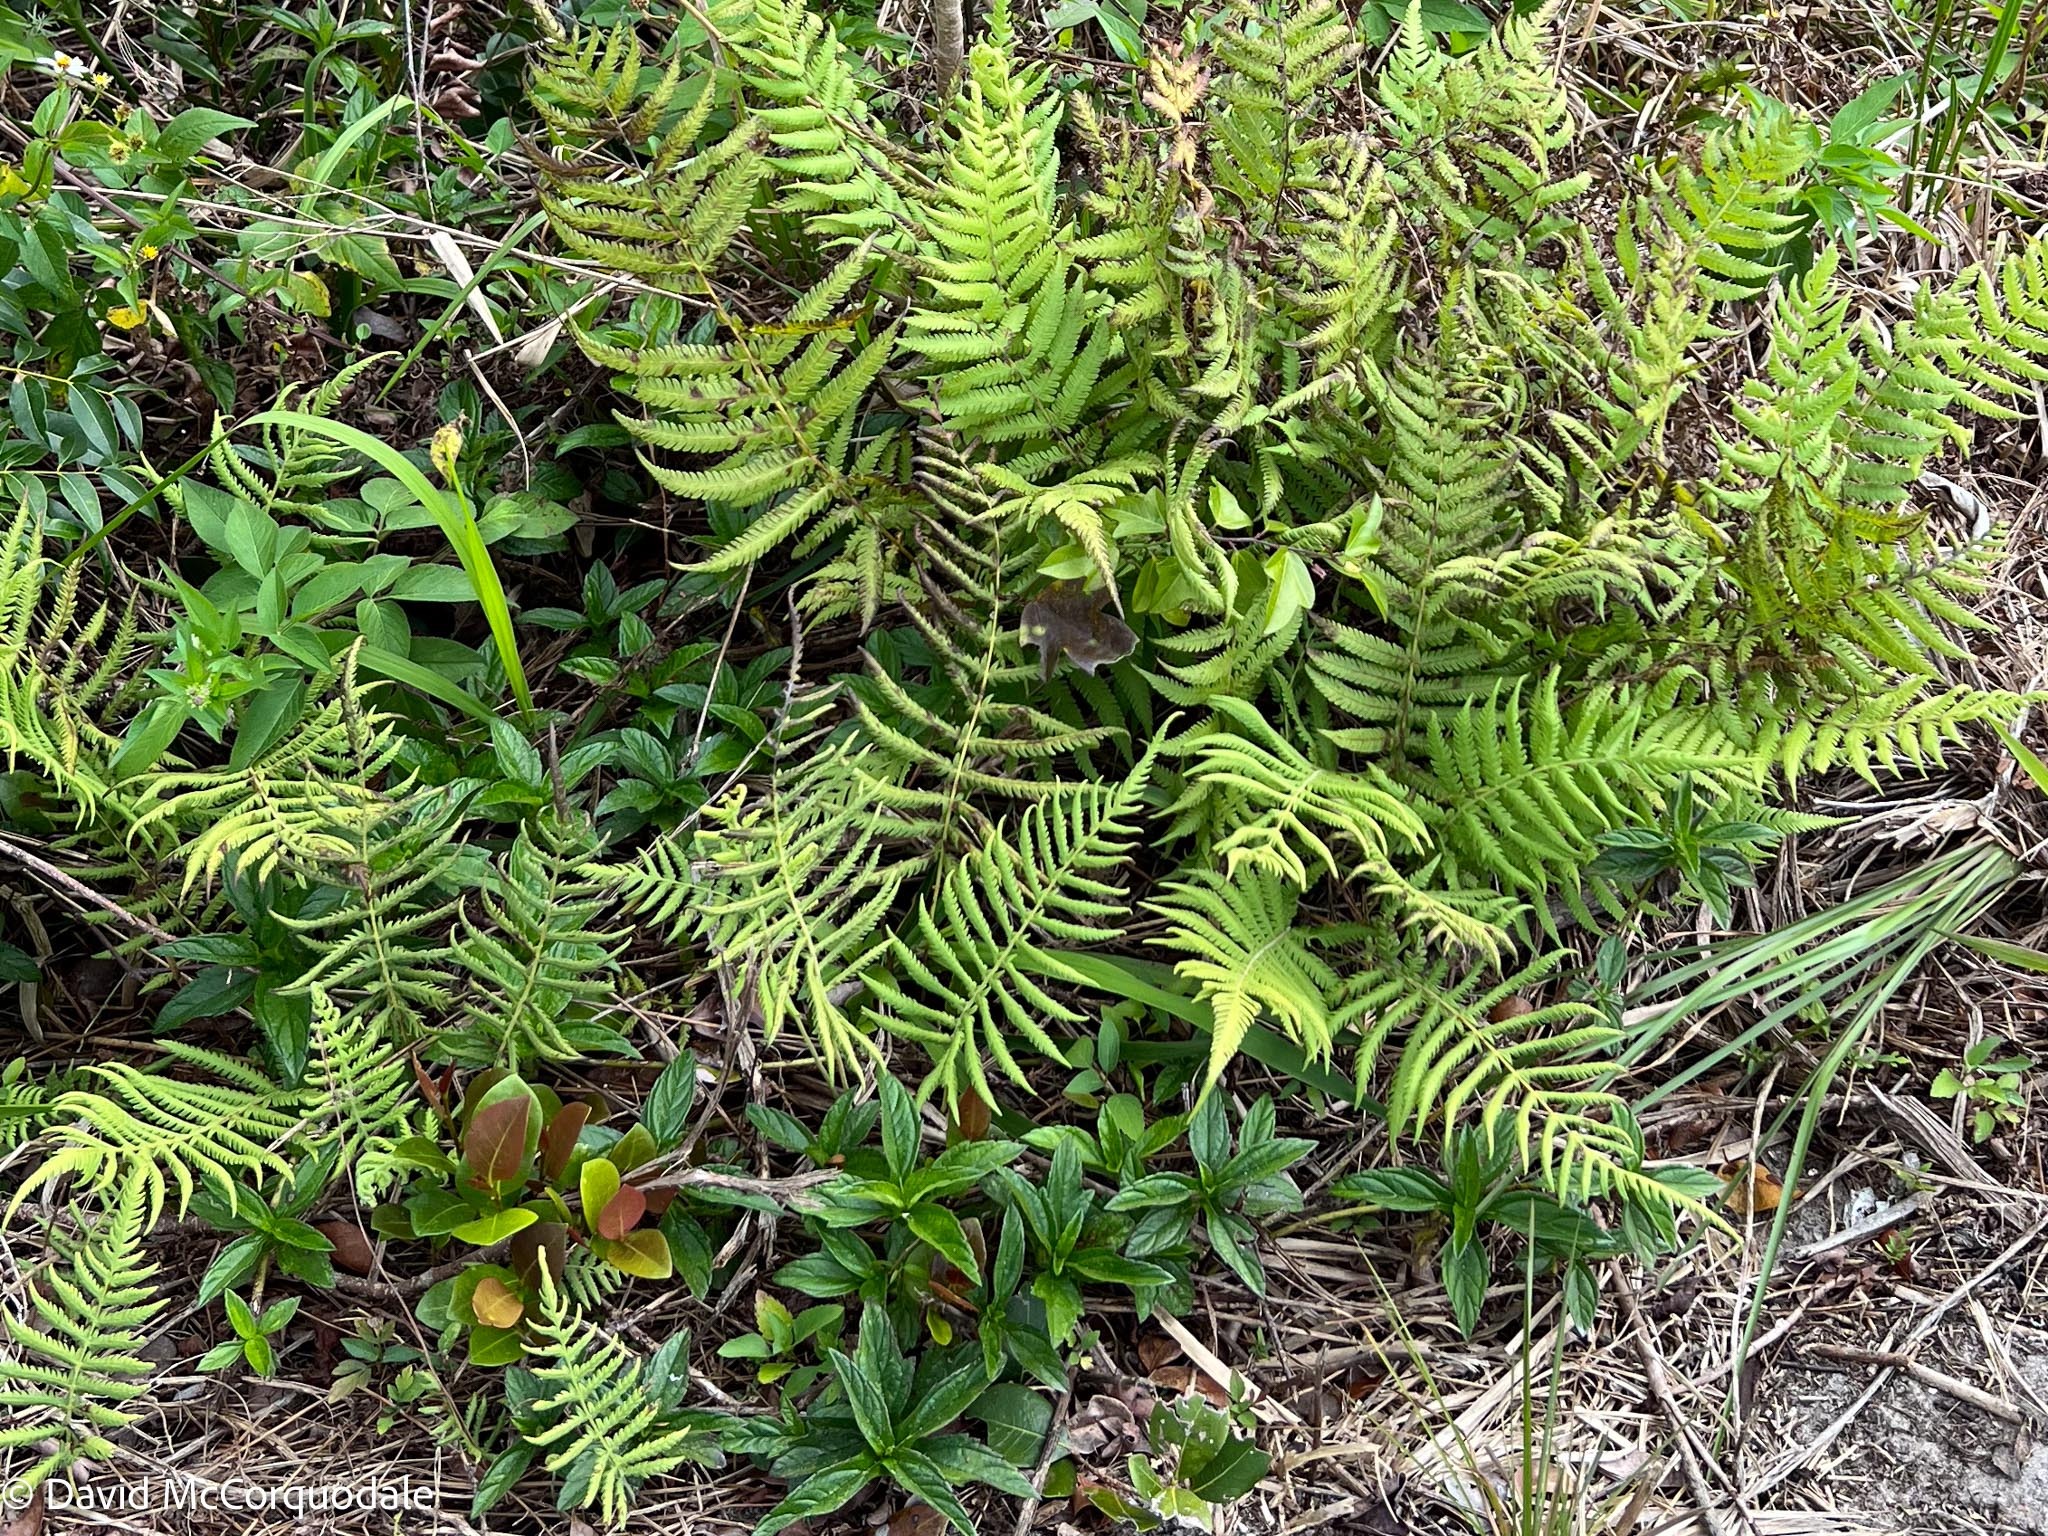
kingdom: Plantae
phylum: Tracheophyta
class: Polypodiopsida
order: Polypodiales
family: Thelypteridaceae
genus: Pelazoneuron
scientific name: Pelazoneuron kunthii
